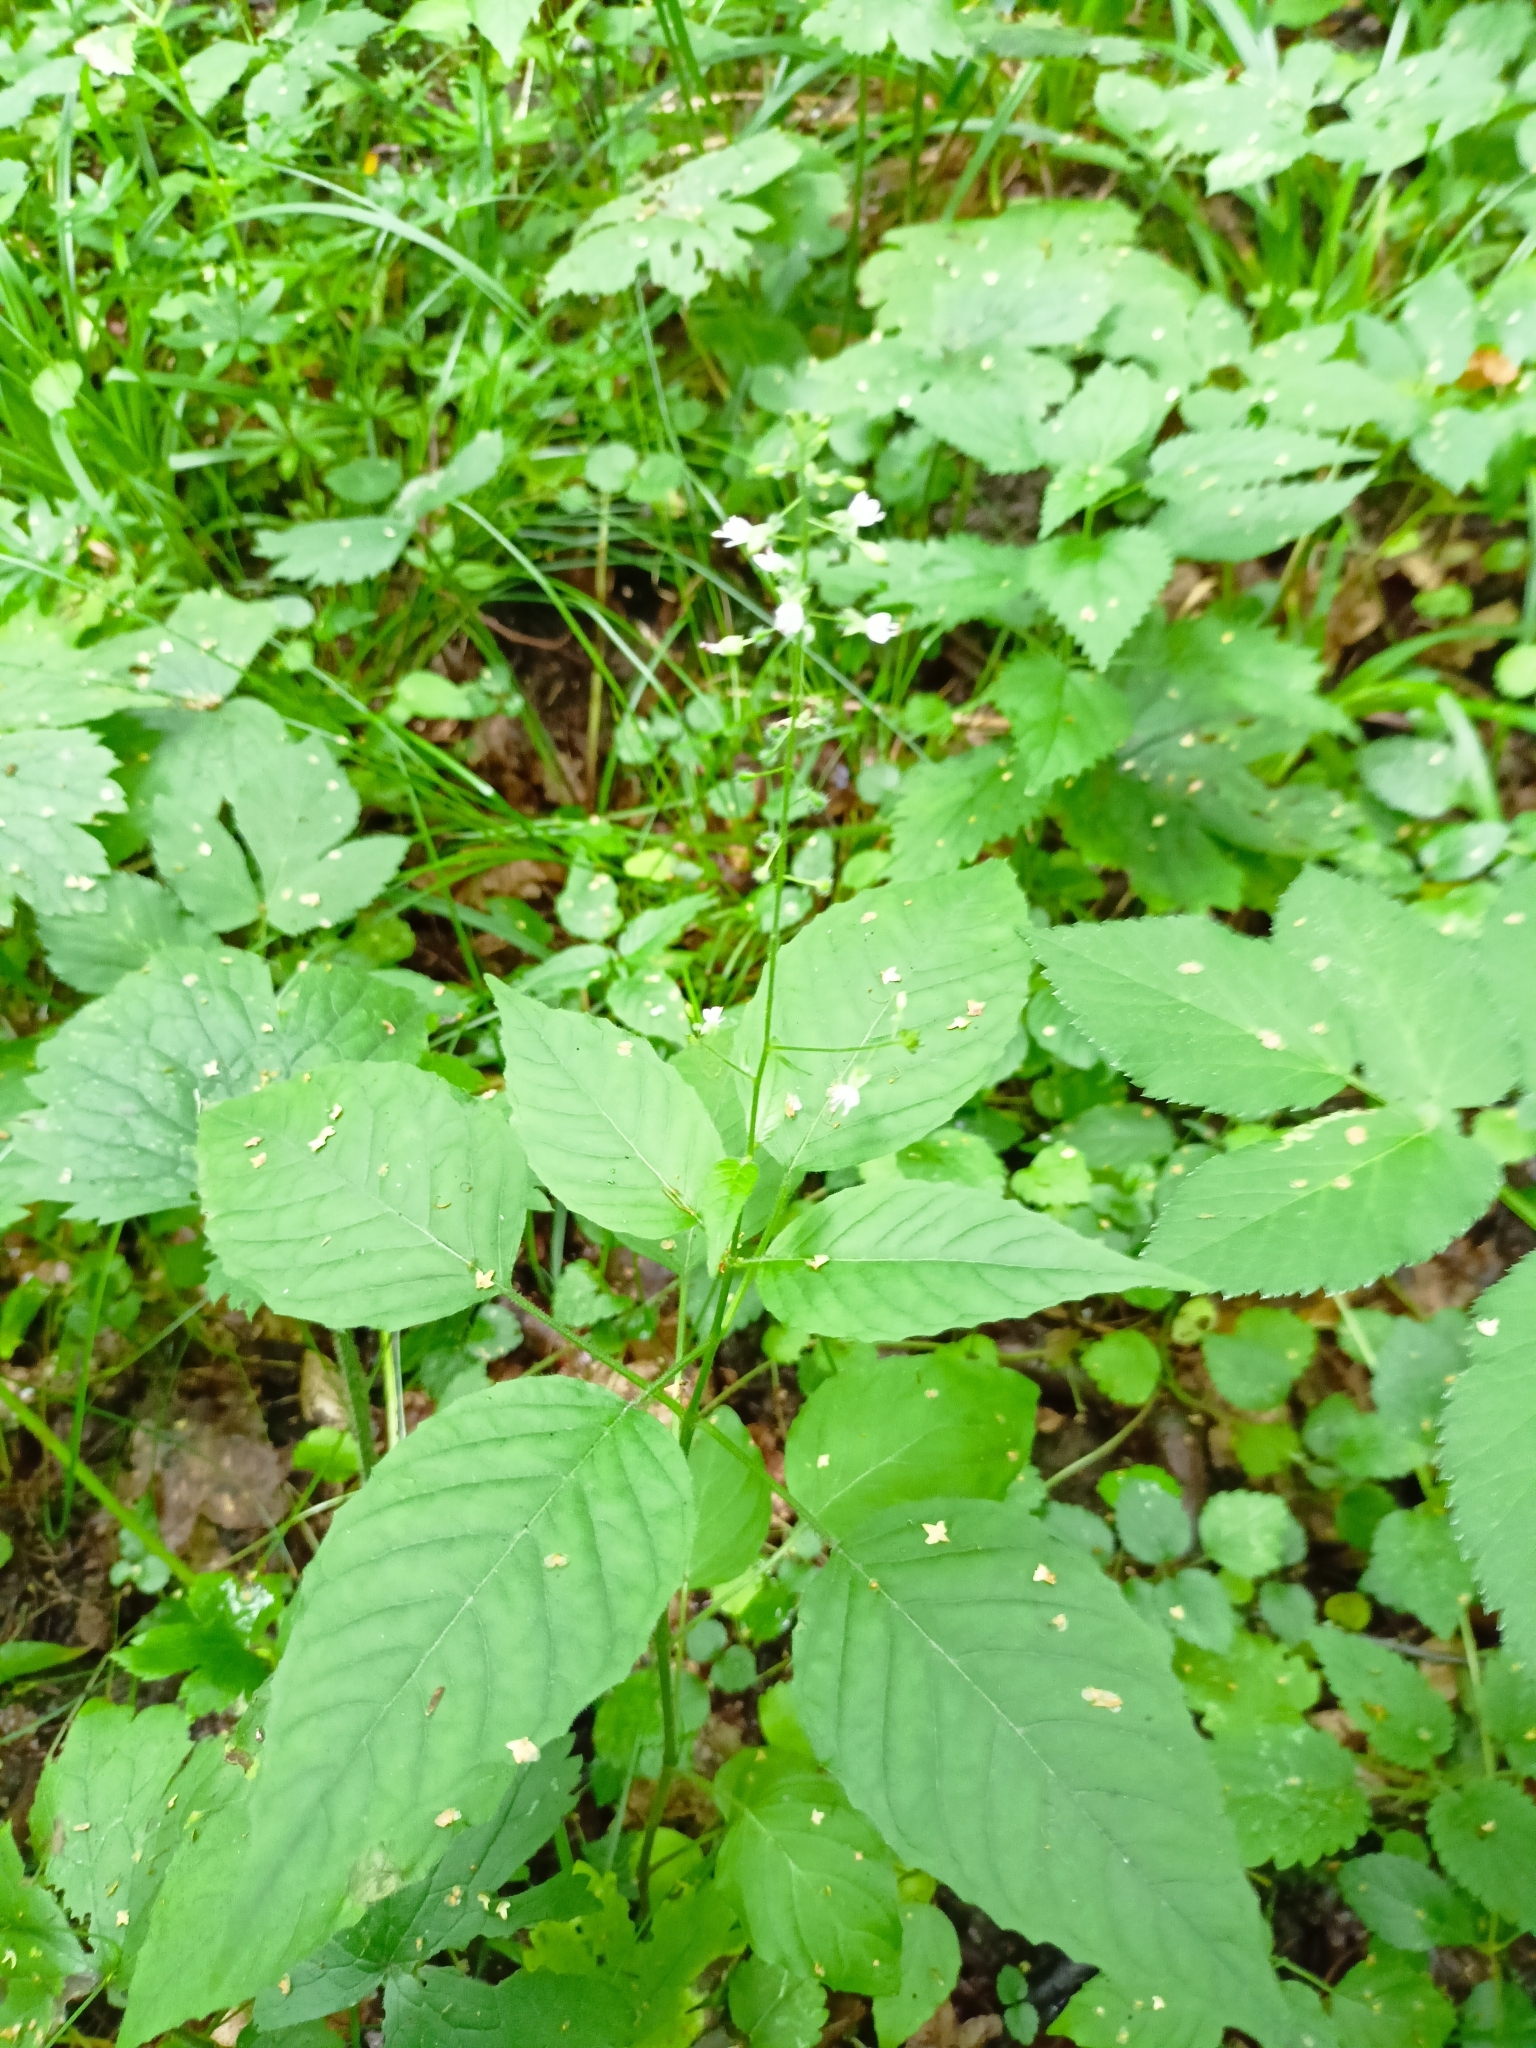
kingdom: Plantae
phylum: Tracheophyta
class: Magnoliopsida
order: Myrtales
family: Onagraceae
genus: Circaea
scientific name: Circaea lutetiana
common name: Enchanter's-nightshade
